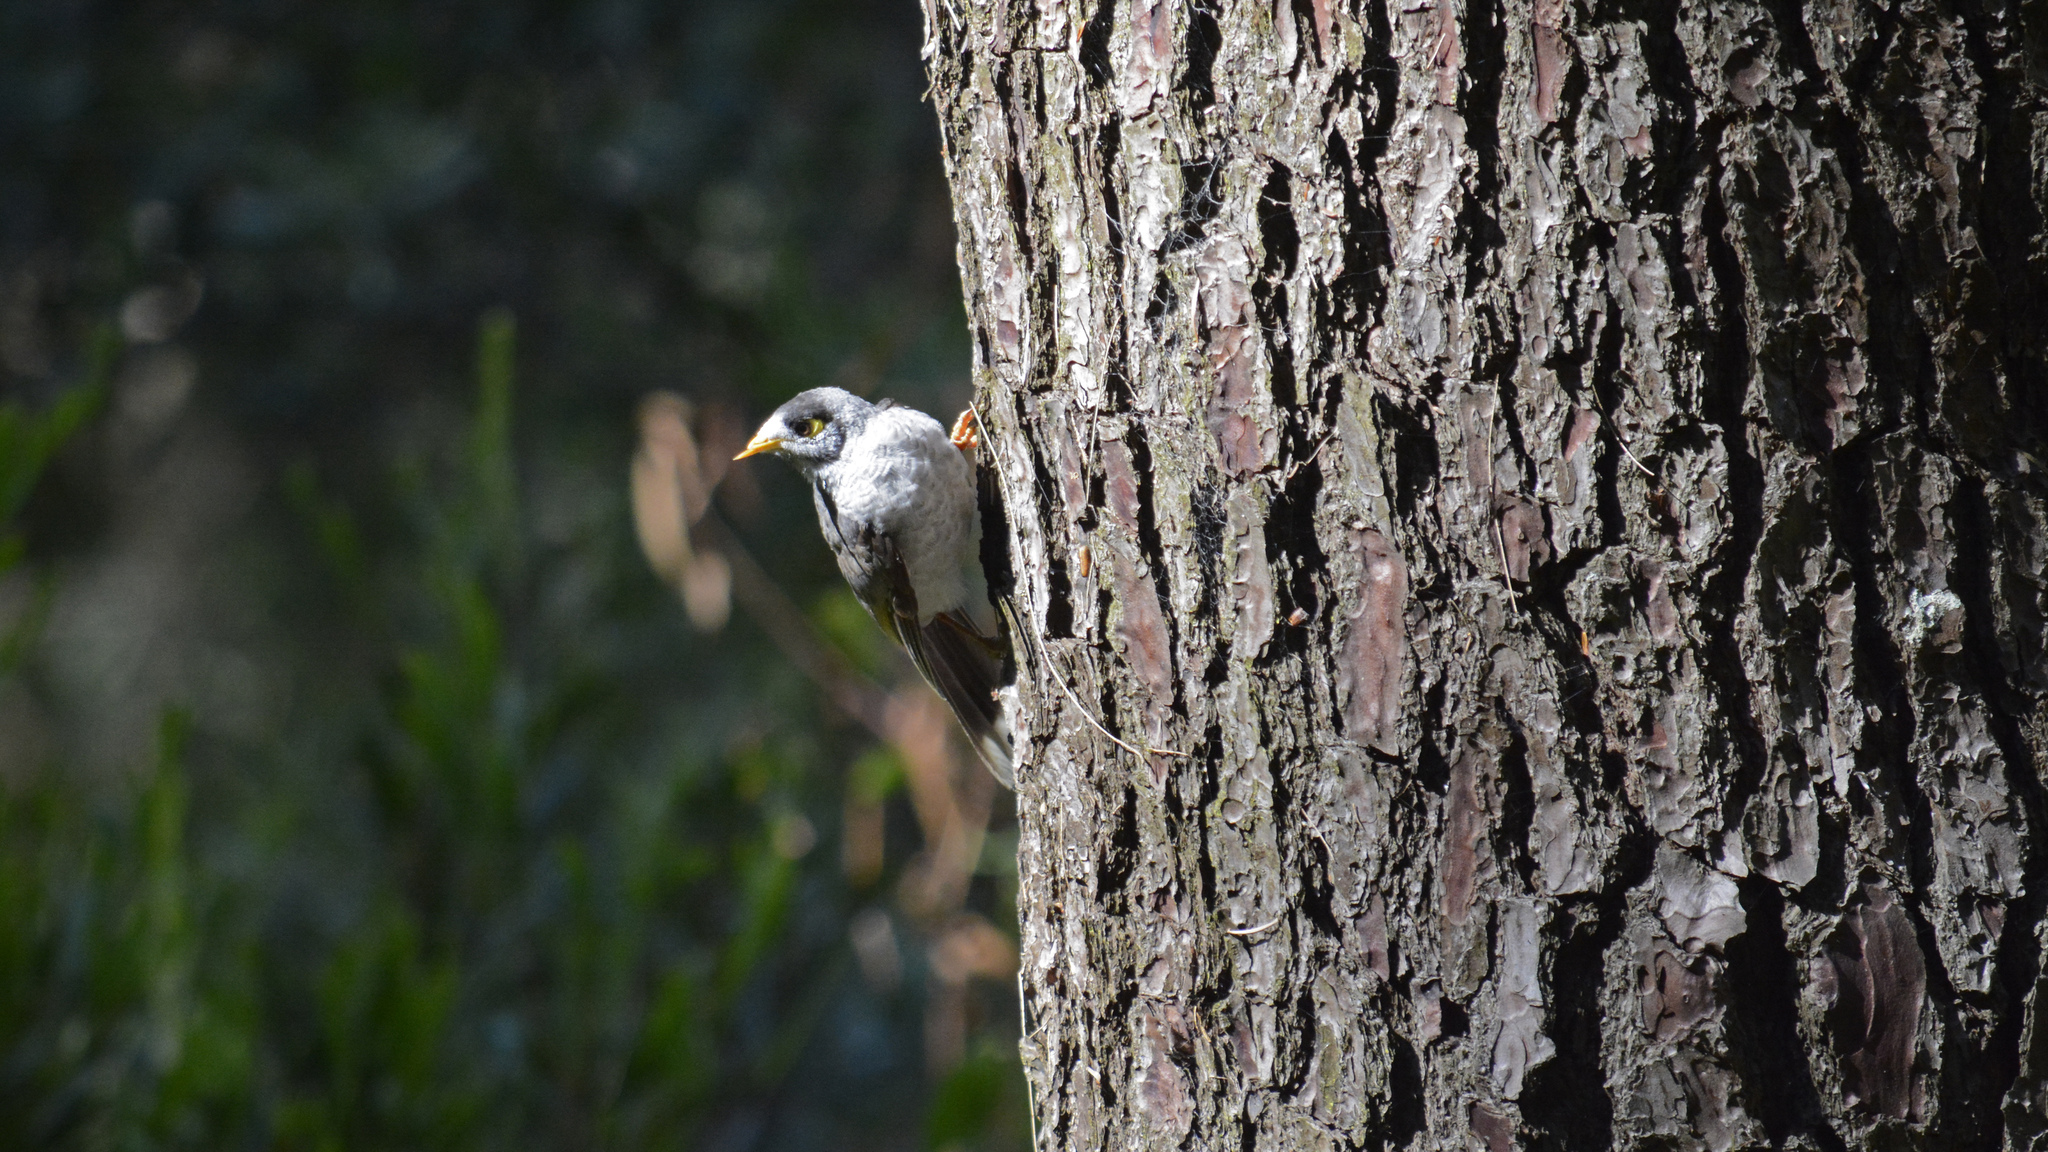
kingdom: Animalia
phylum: Chordata
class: Aves
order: Passeriformes
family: Meliphagidae
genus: Manorina
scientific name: Manorina melanocephala
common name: Noisy miner
